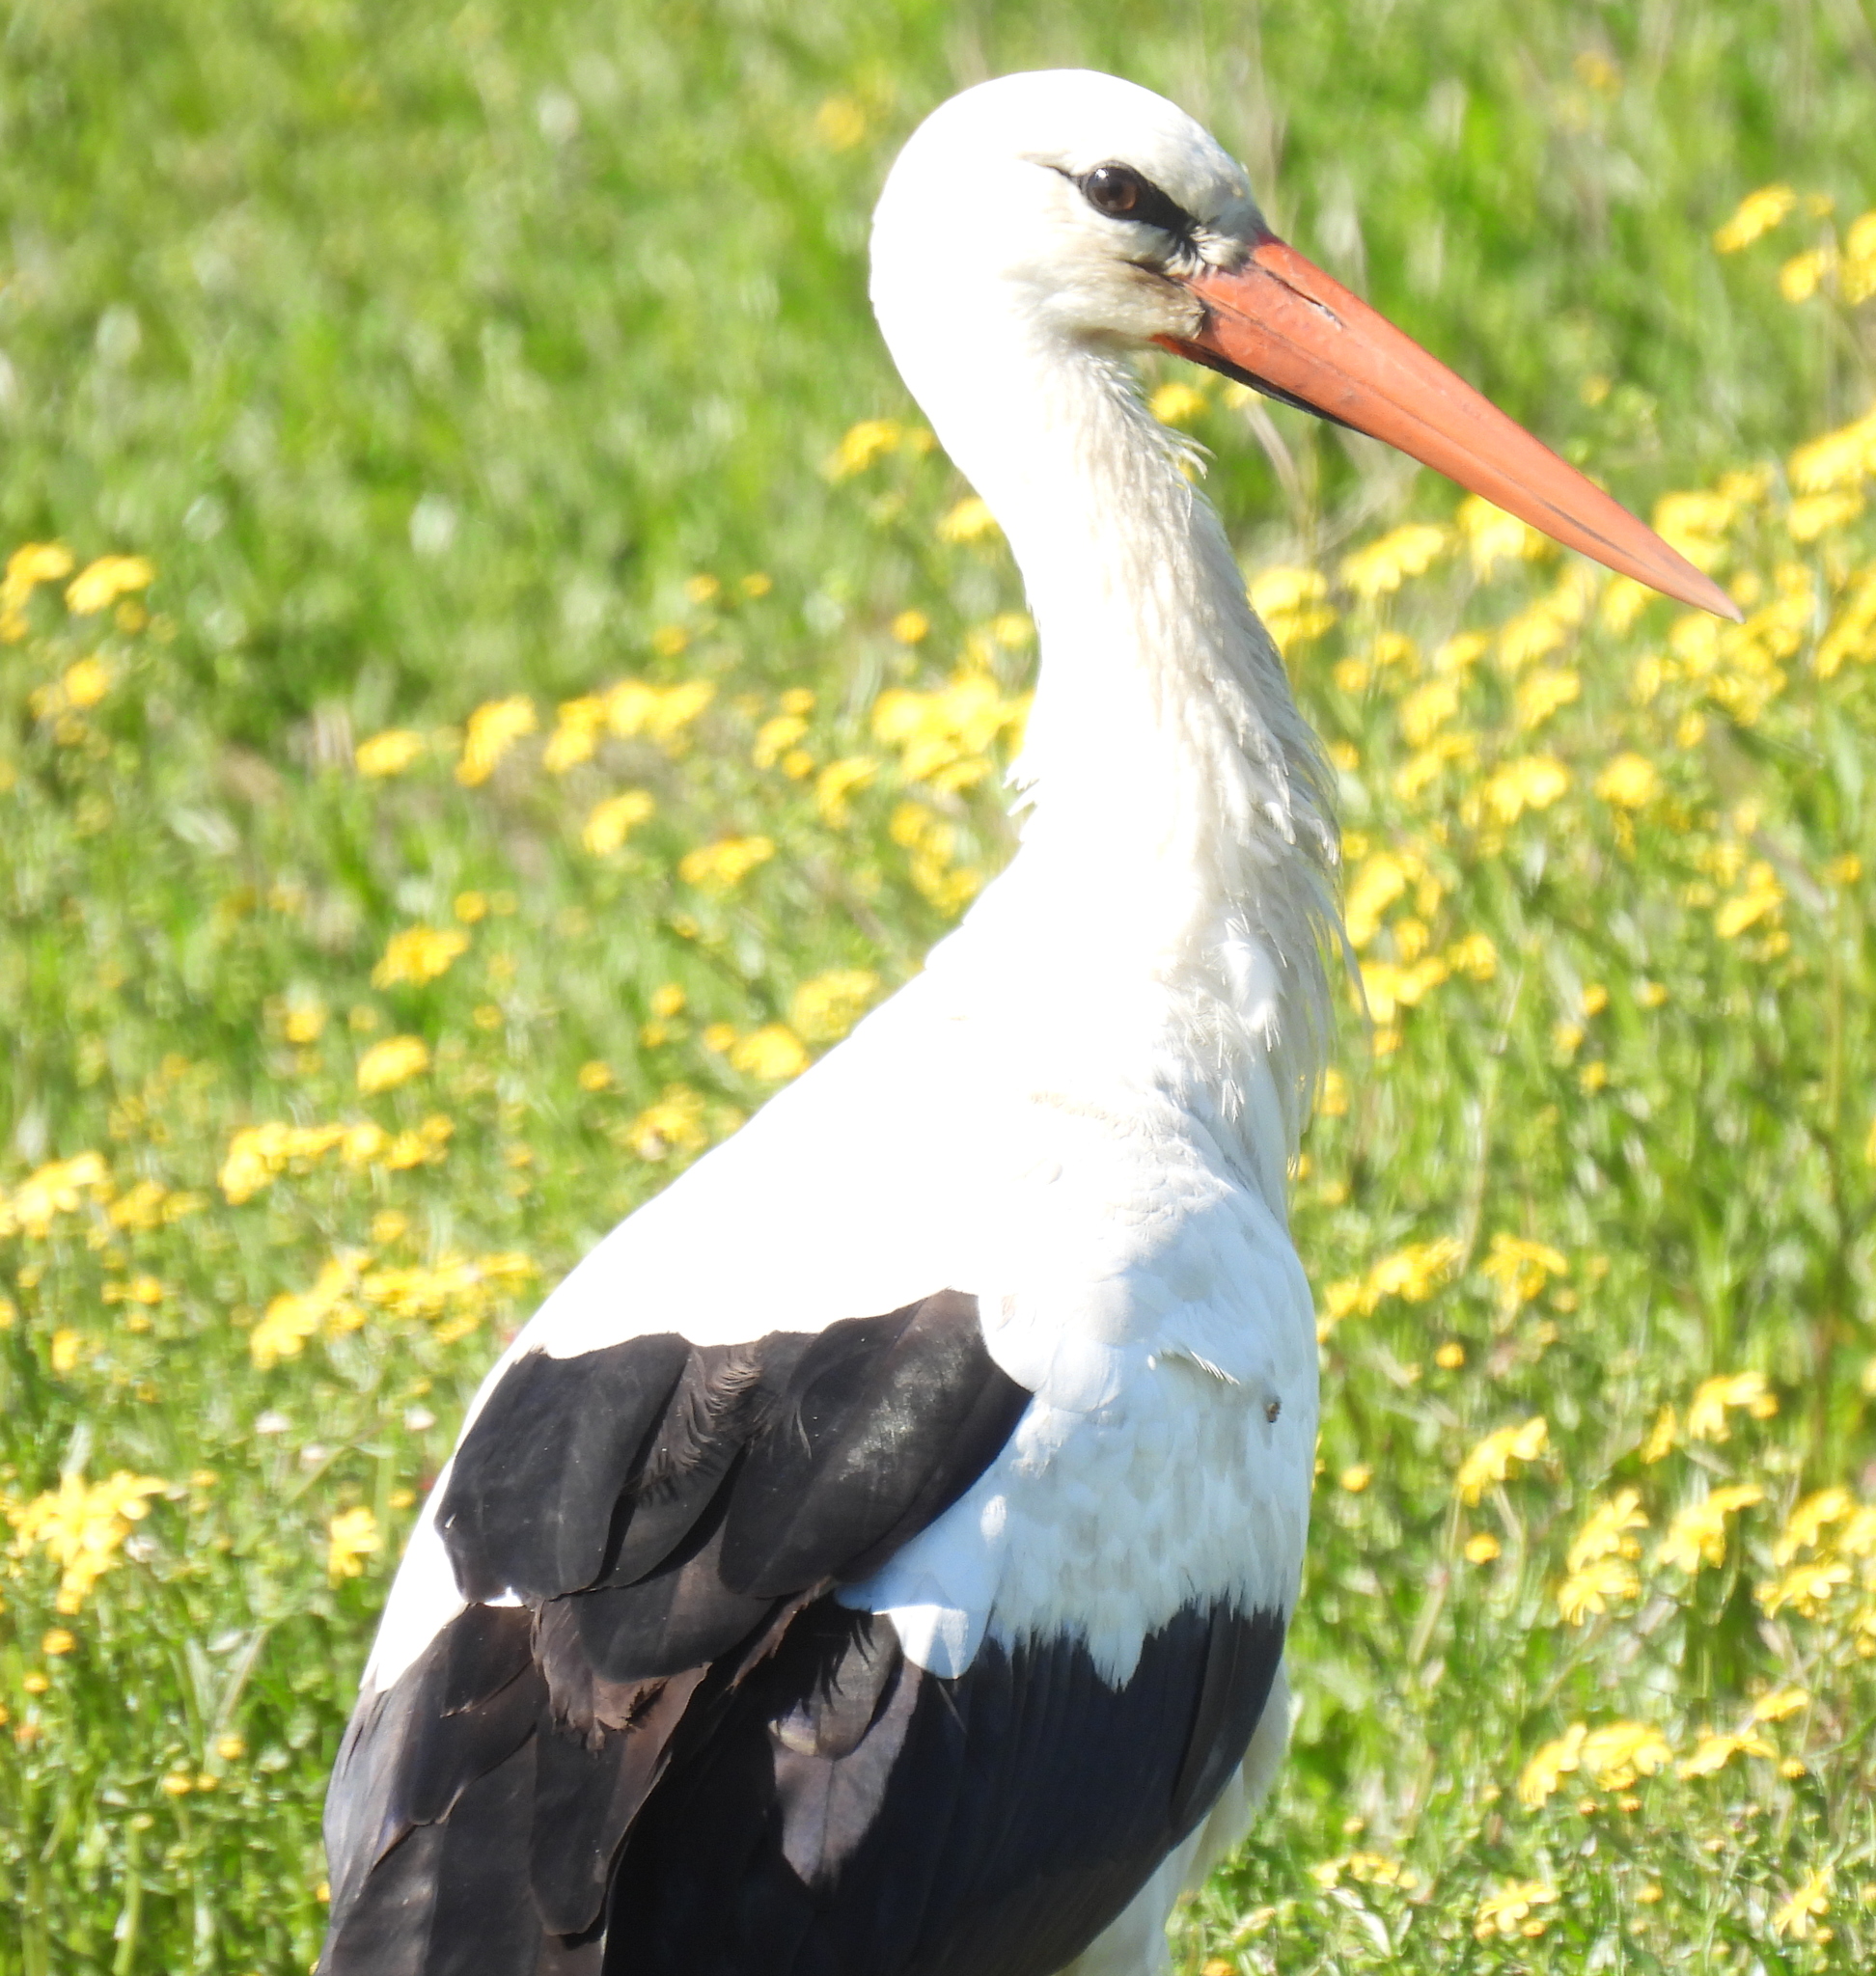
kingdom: Animalia
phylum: Chordata
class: Aves
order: Ciconiiformes
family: Ciconiidae
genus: Ciconia
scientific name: Ciconia ciconia
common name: White stork
